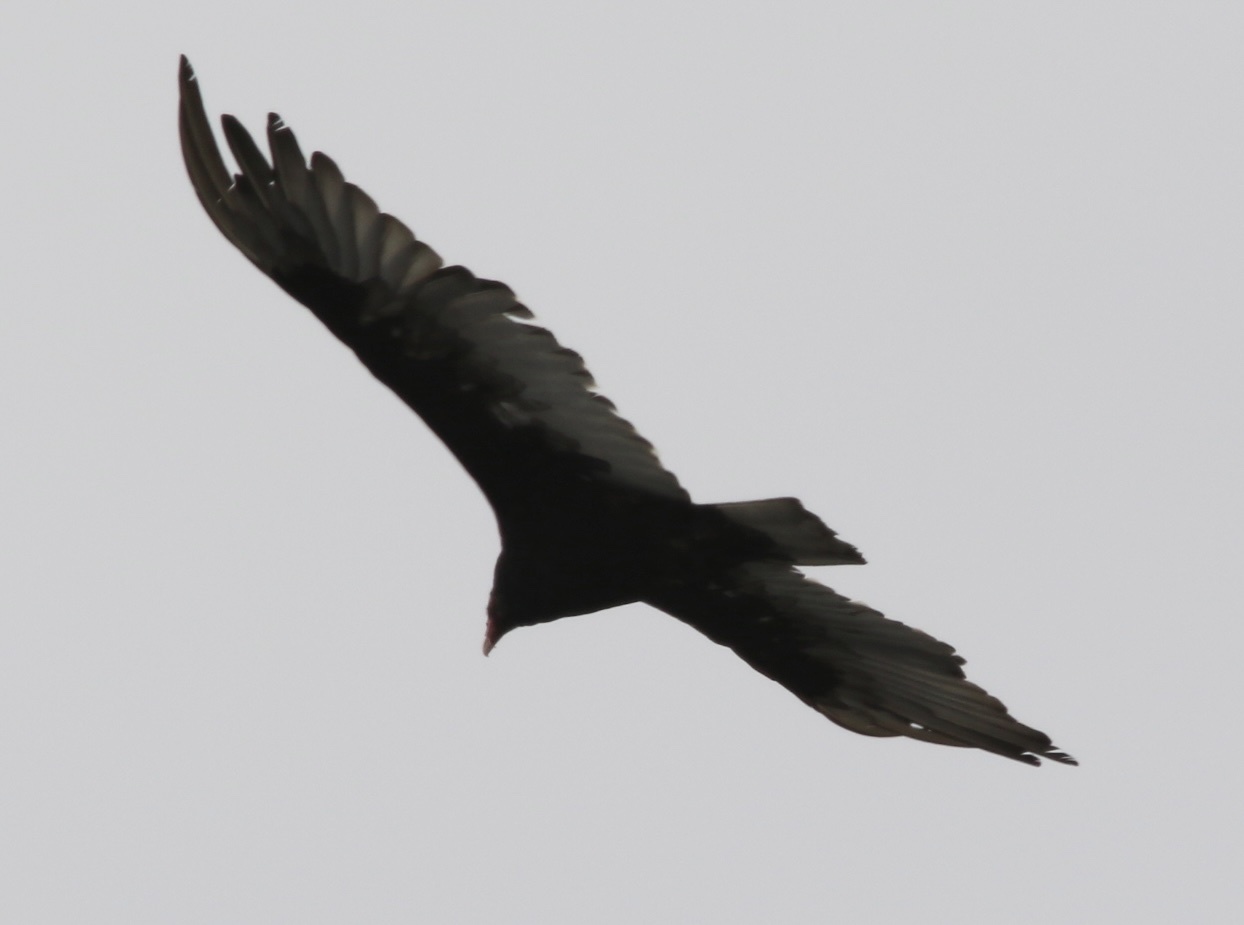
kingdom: Animalia
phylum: Chordata
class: Aves
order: Accipitriformes
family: Cathartidae
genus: Cathartes
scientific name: Cathartes aura
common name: Turkey vulture
